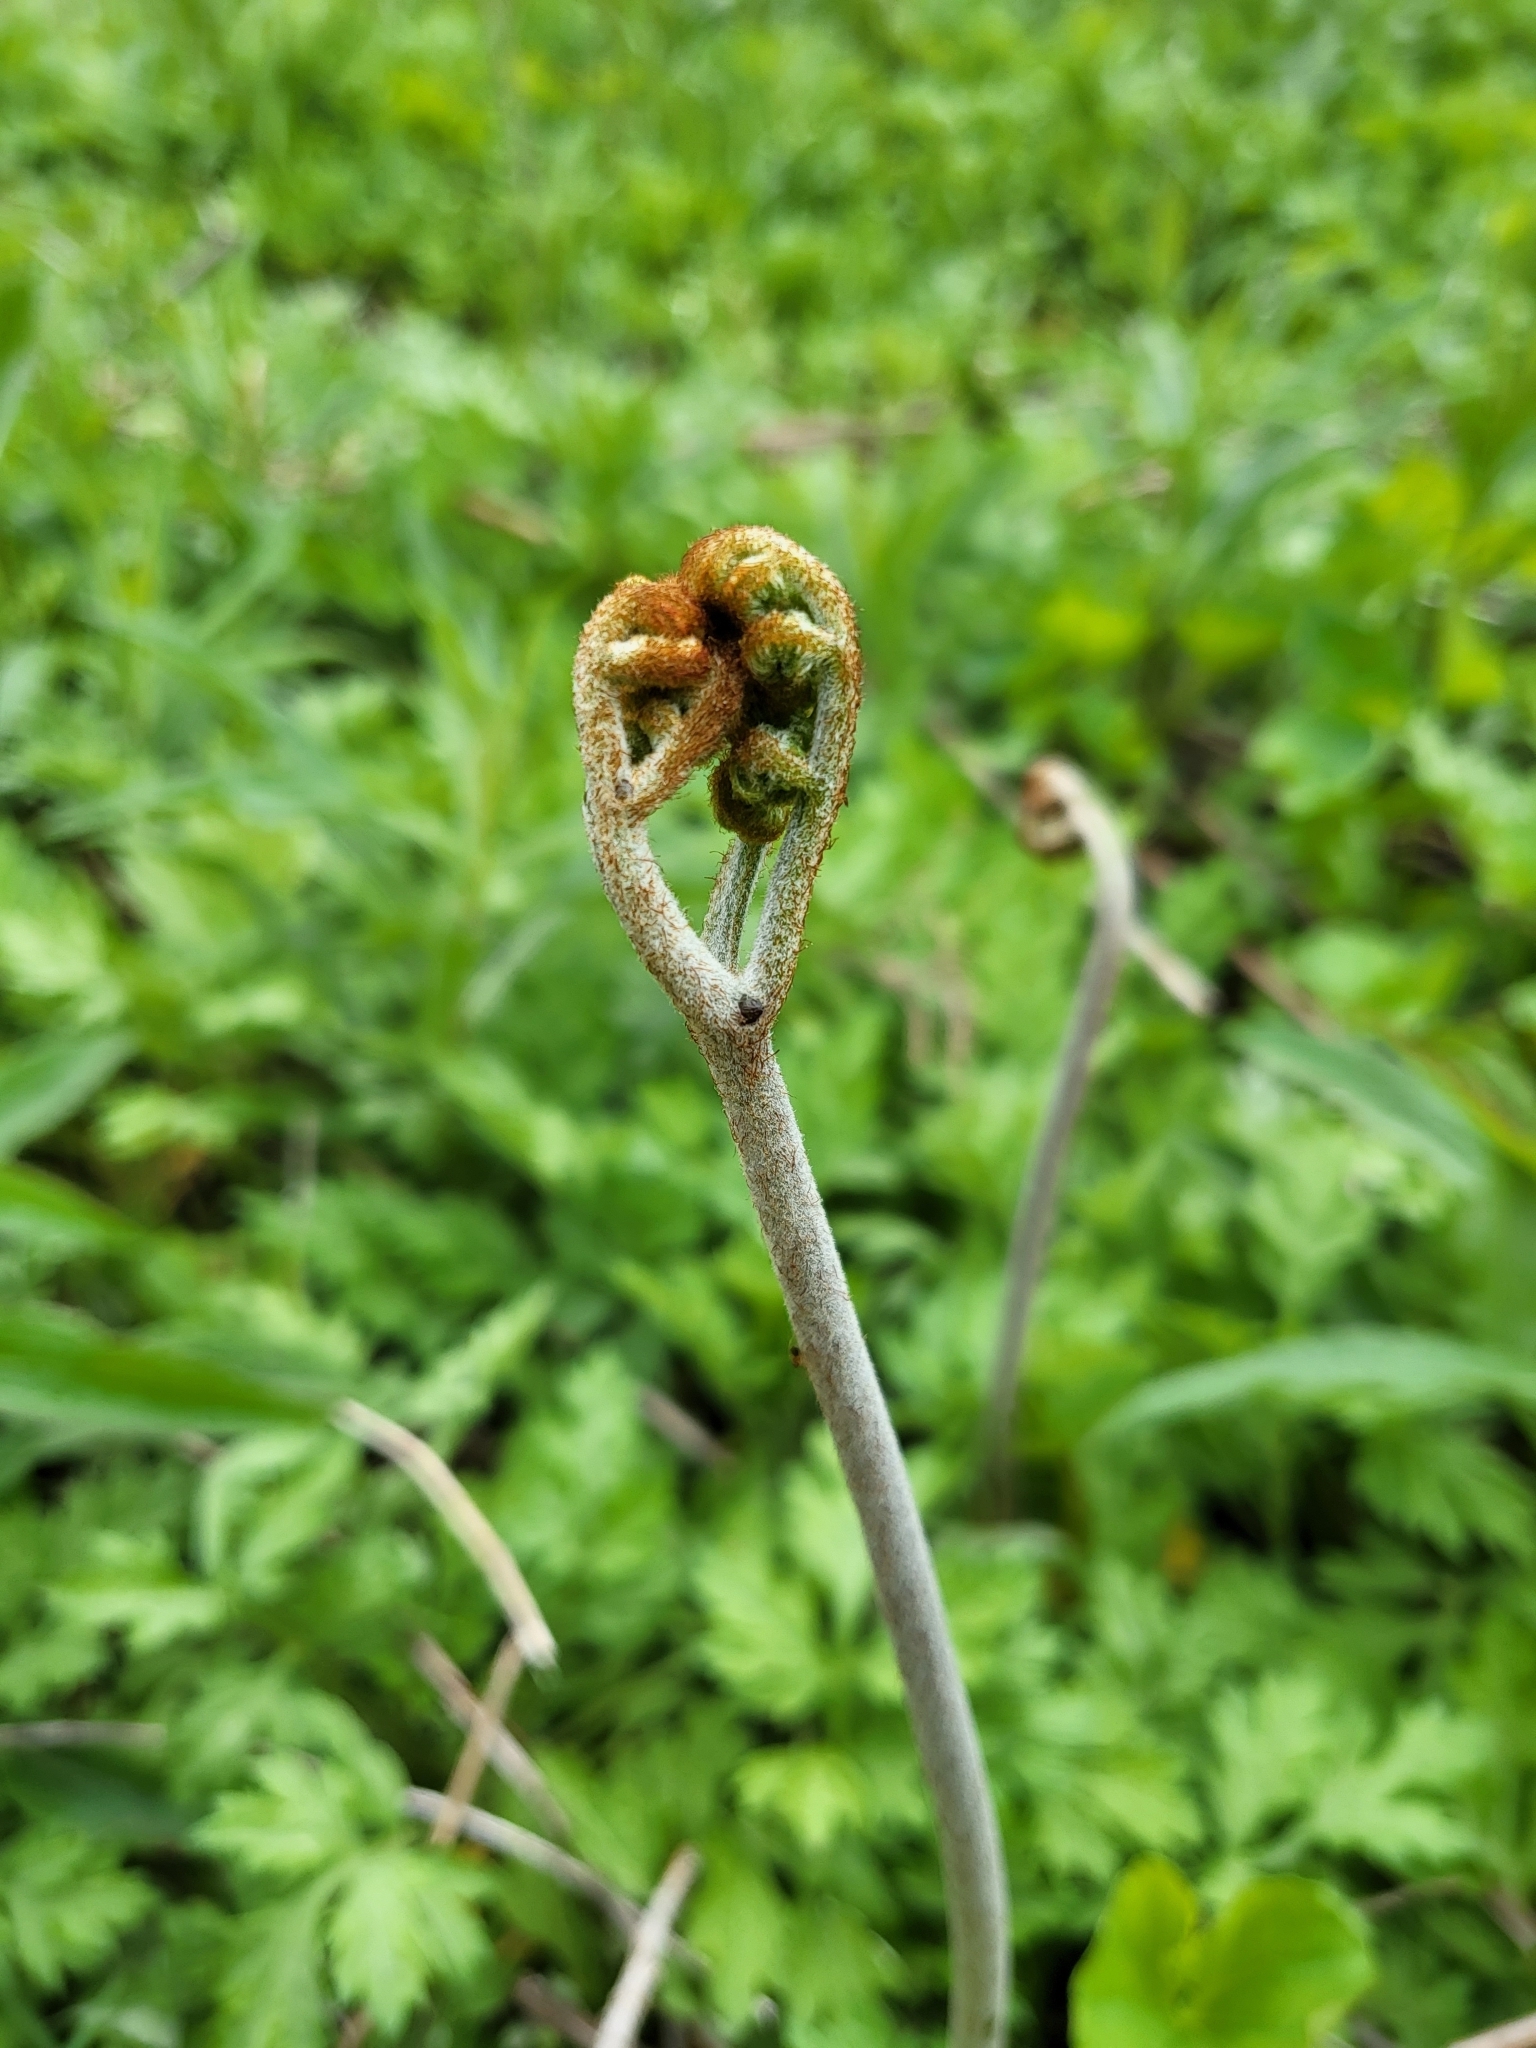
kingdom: Plantae
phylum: Tracheophyta
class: Polypodiopsida
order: Polypodiales
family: Dennstaedtiaceae
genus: Pteridium
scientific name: Pteridium aquilinum
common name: Bracken
